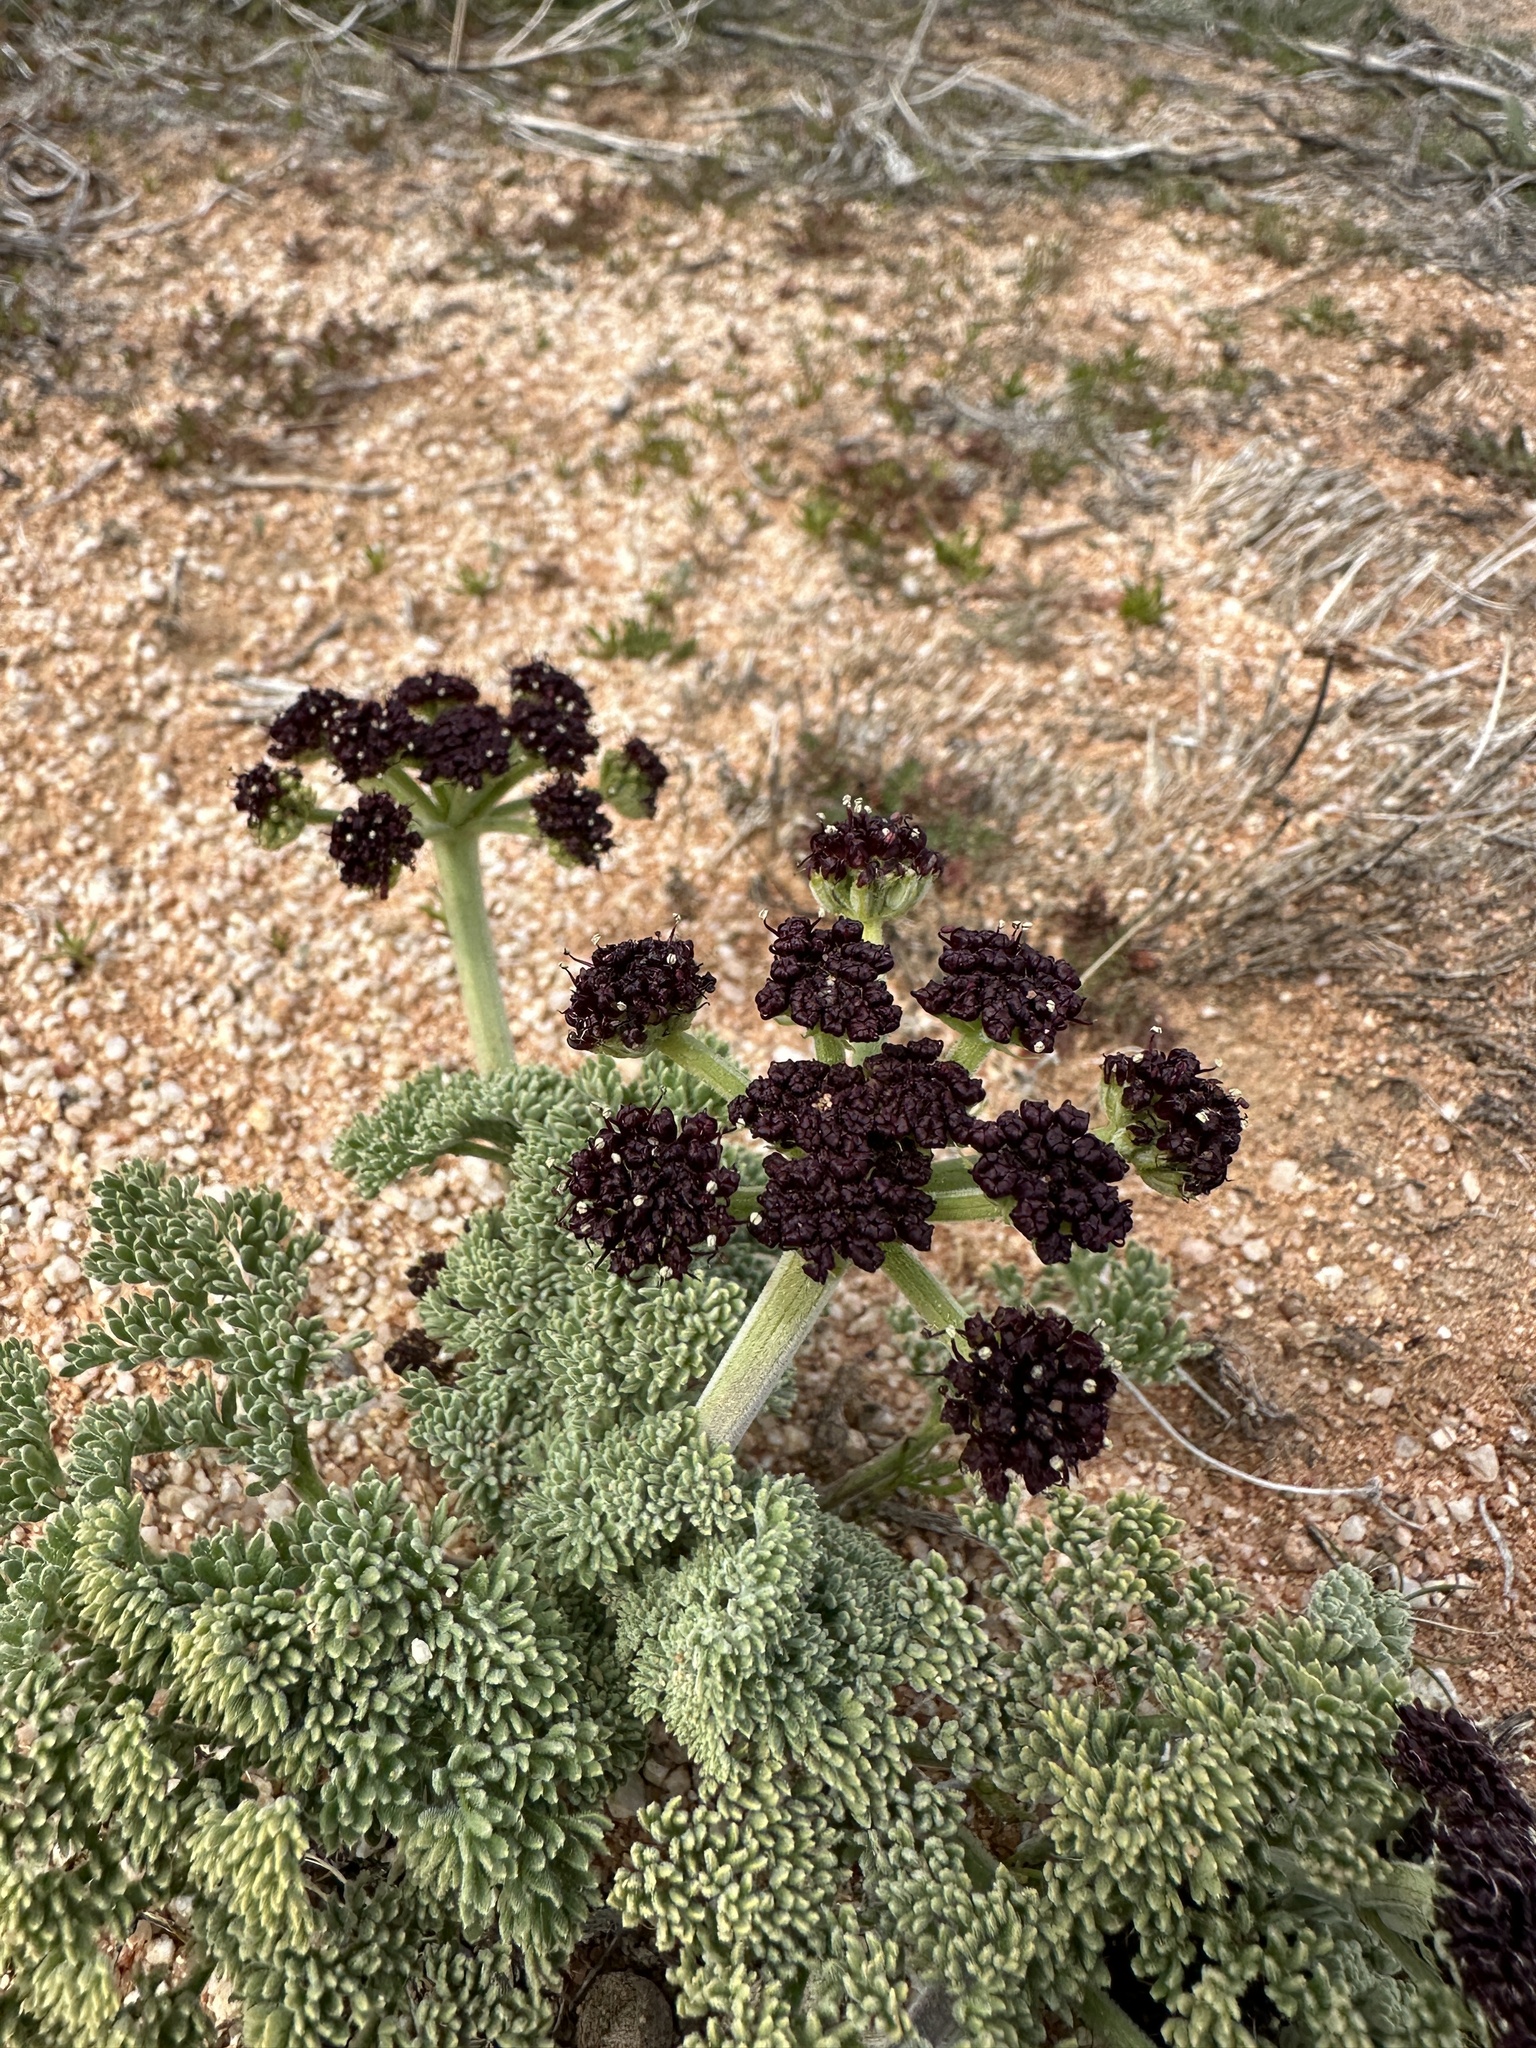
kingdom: Plantae
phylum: Tracheophyta
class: Magnoliopsida
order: Apiales
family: Apiaceae
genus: Lomatium
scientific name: Lomatium mohavense
